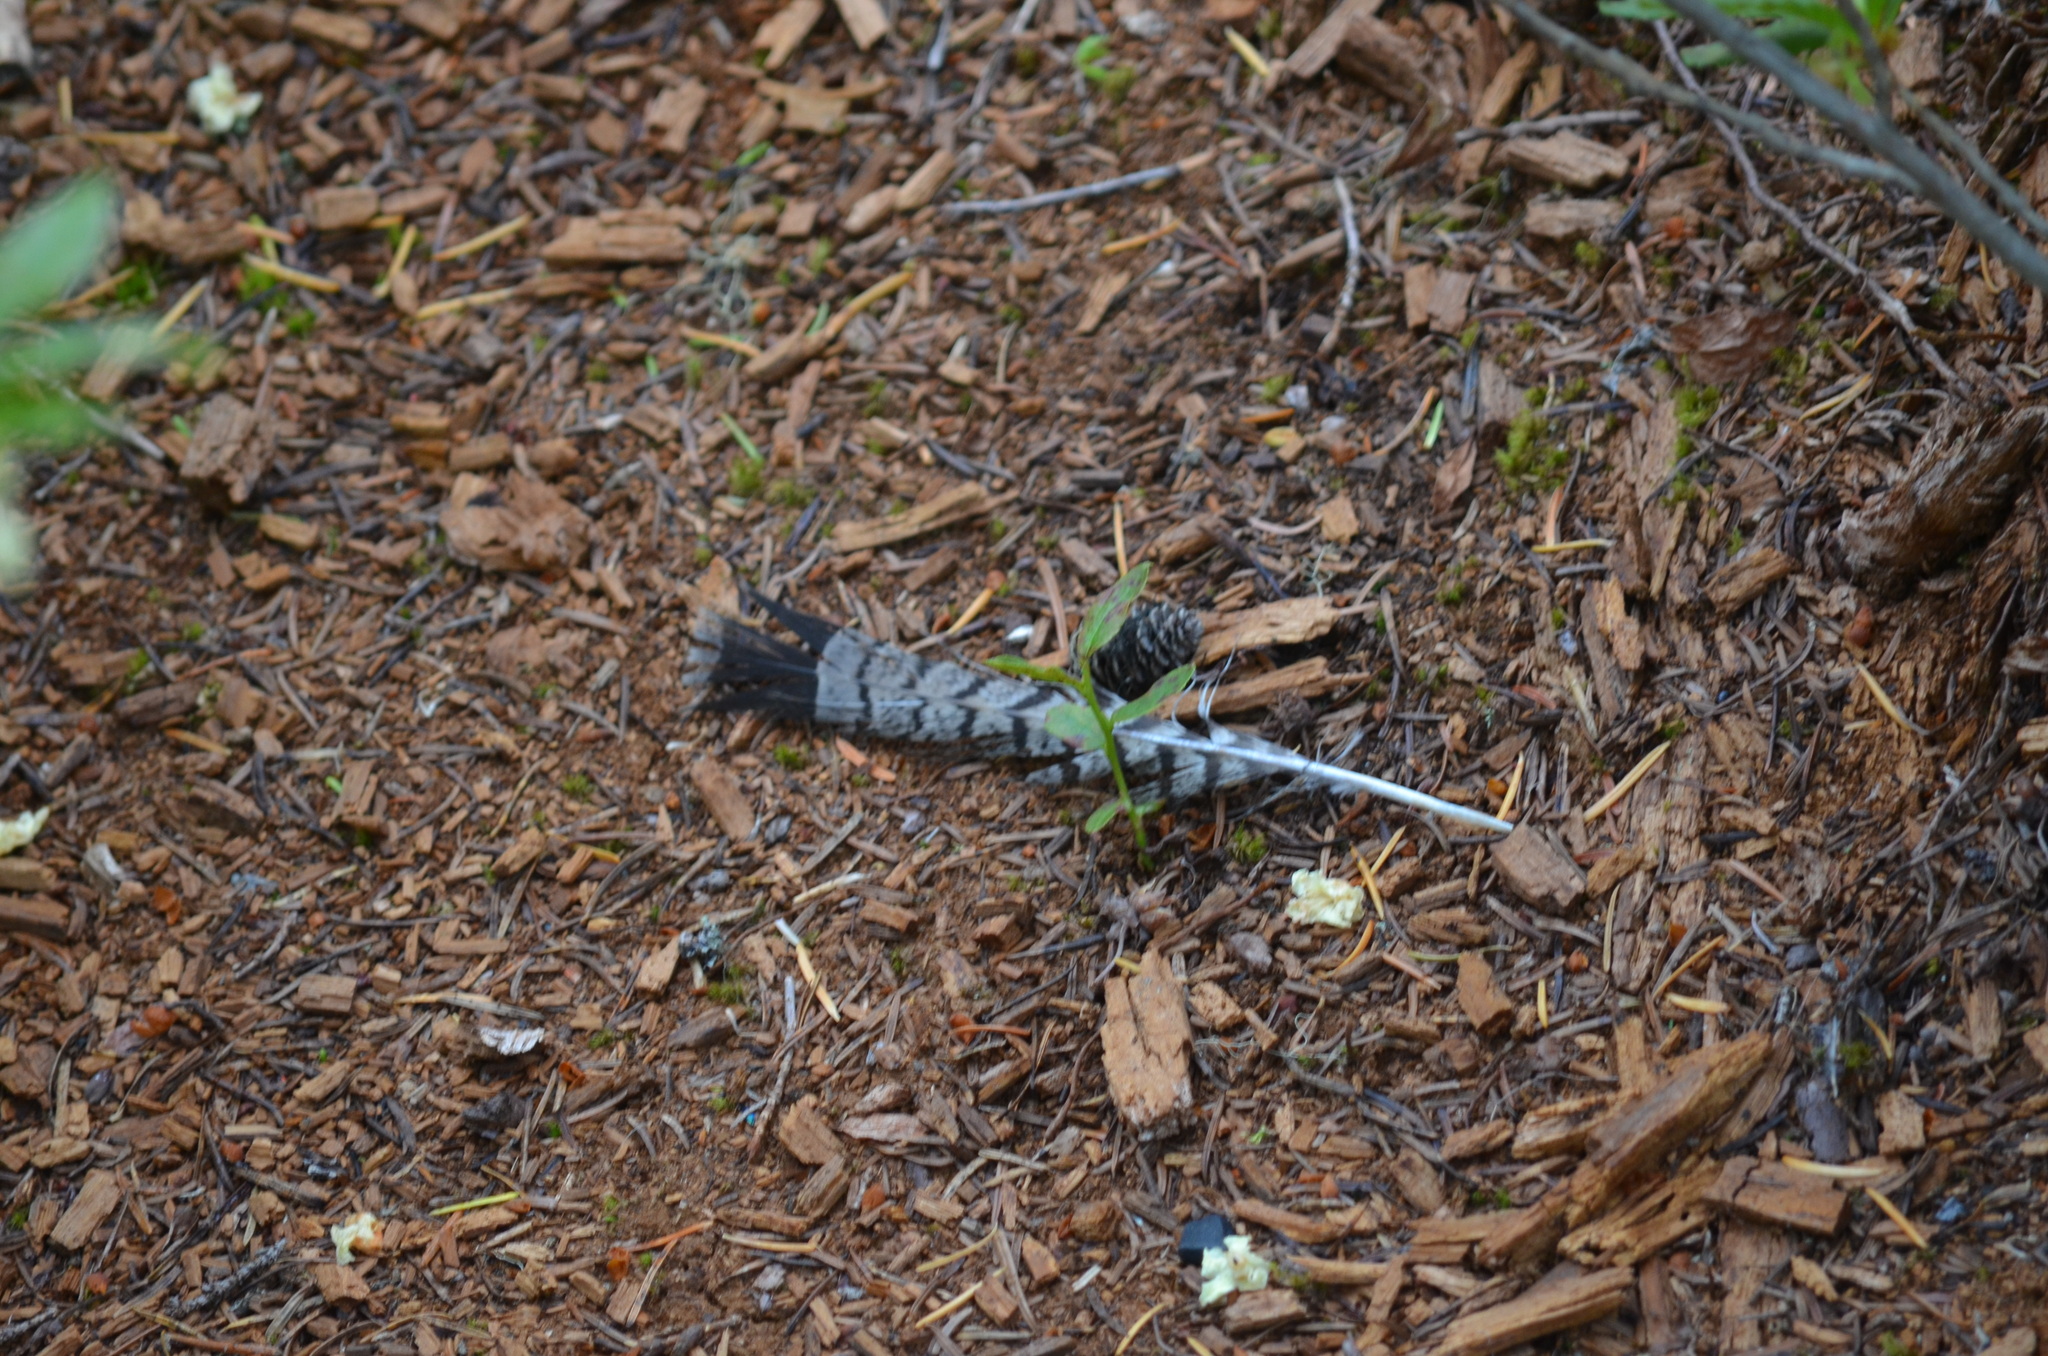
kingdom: Animalia
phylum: Chordata
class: Aves
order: Galliformes
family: Phasianidae
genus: Bonasa
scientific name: Bonasa umbellus
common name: Ruffed grouse
